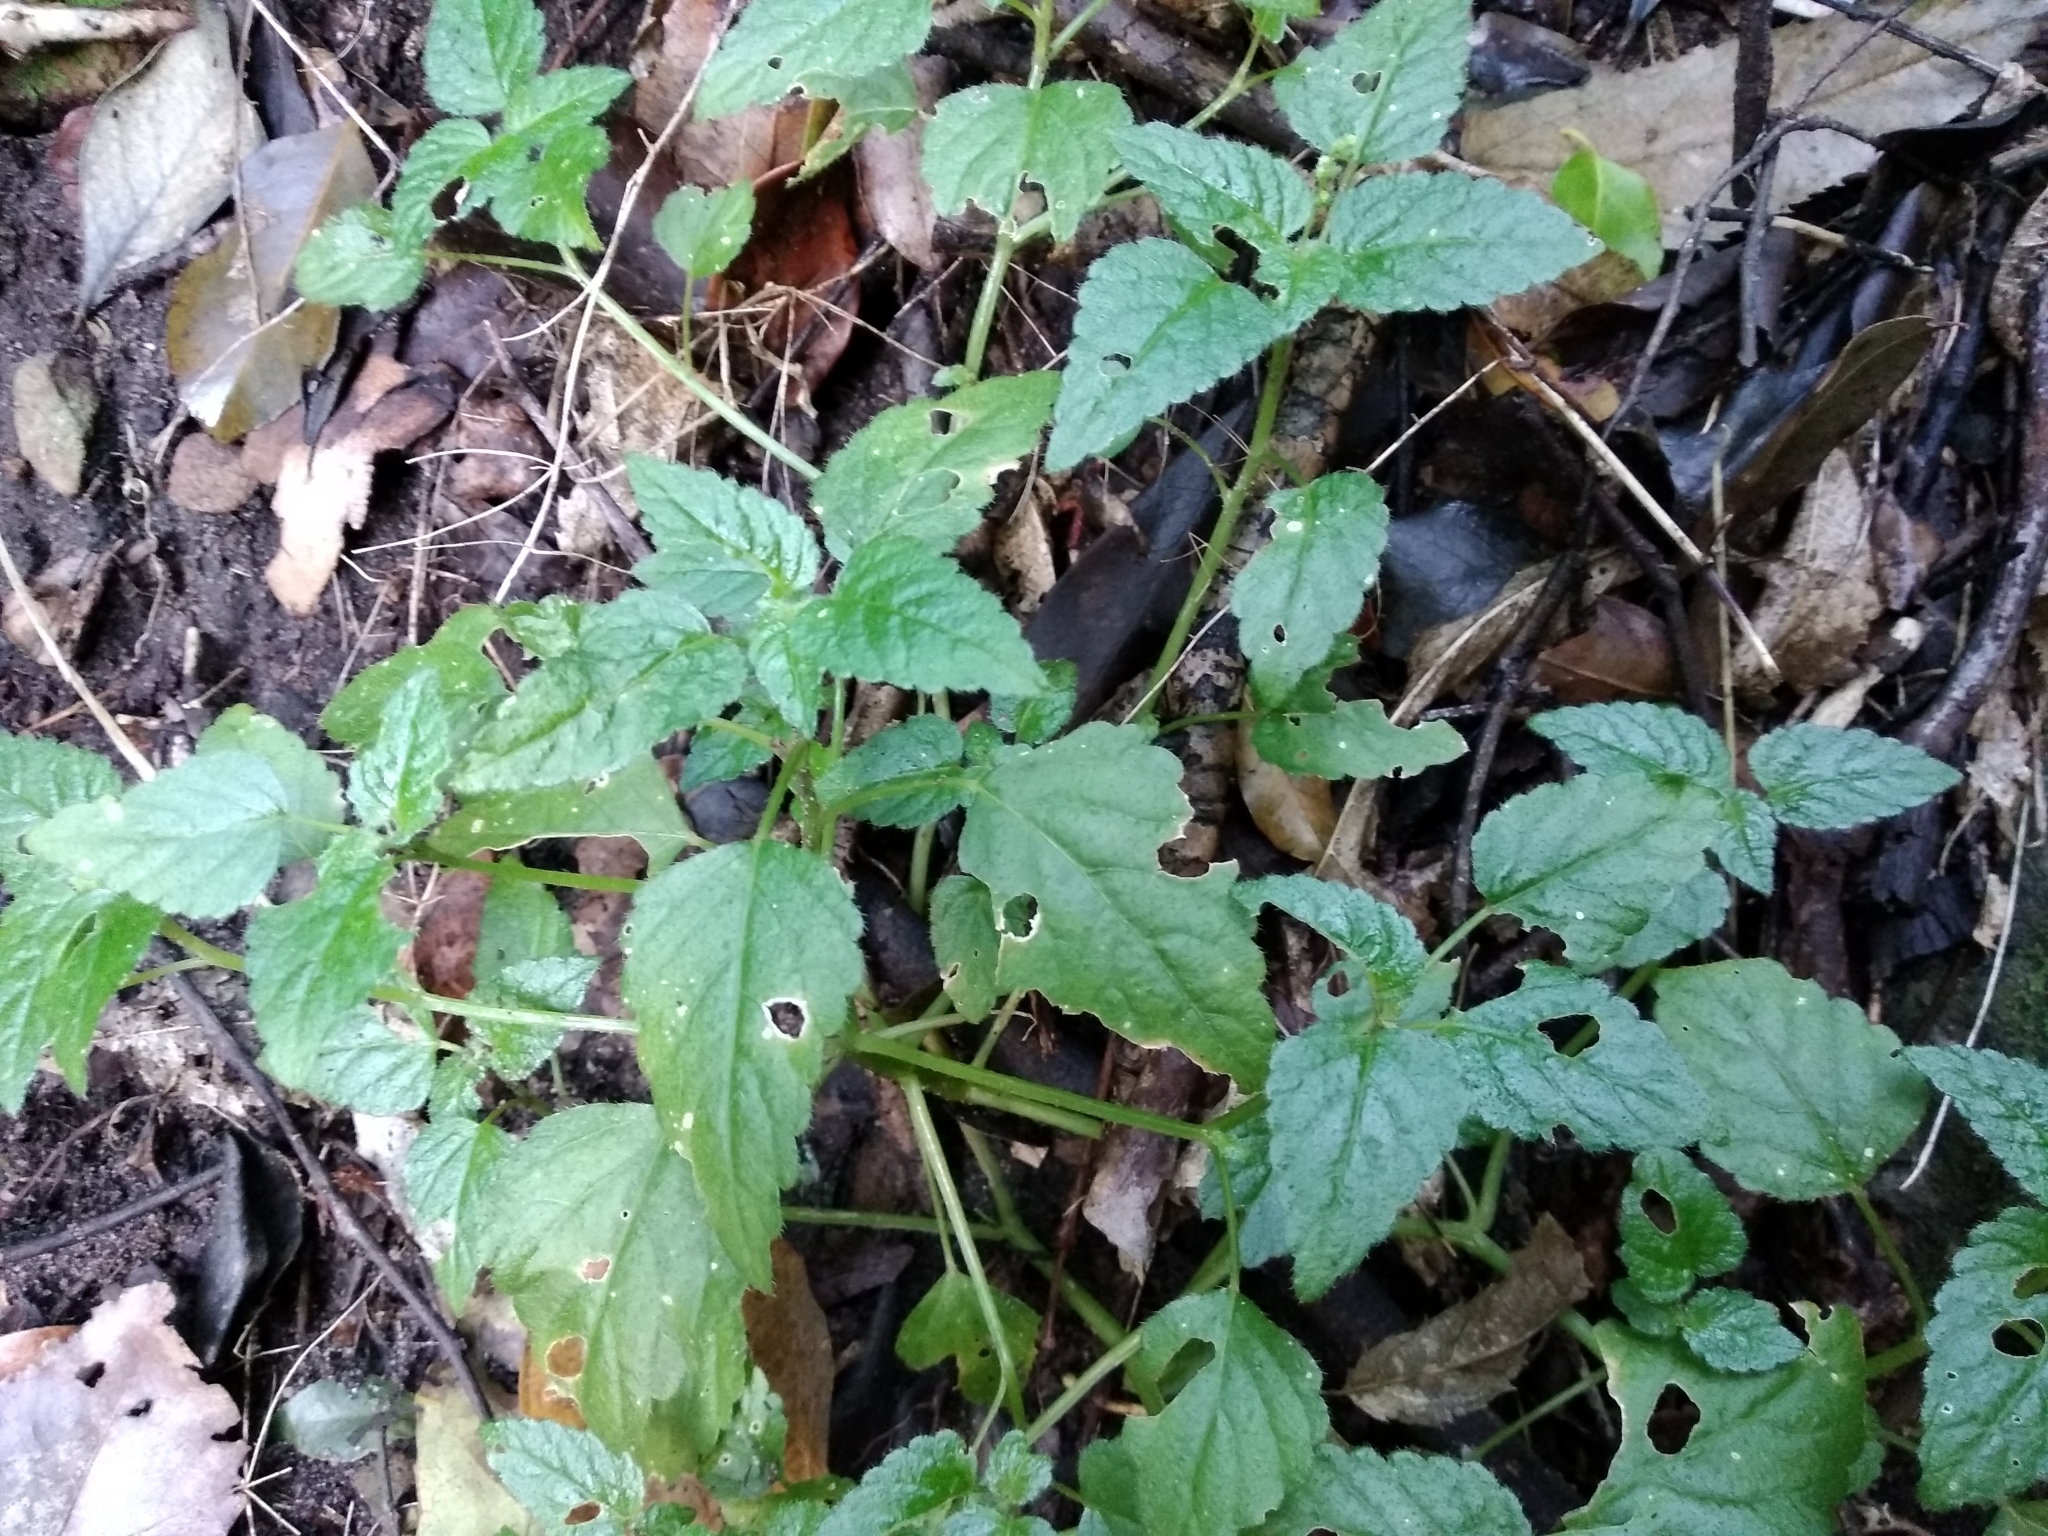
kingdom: Plantae
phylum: Tracheophyta
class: Magnoliopsida
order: Malpighiales
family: Euphorbiaceae
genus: Leidesia
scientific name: Leidesia procumbens
